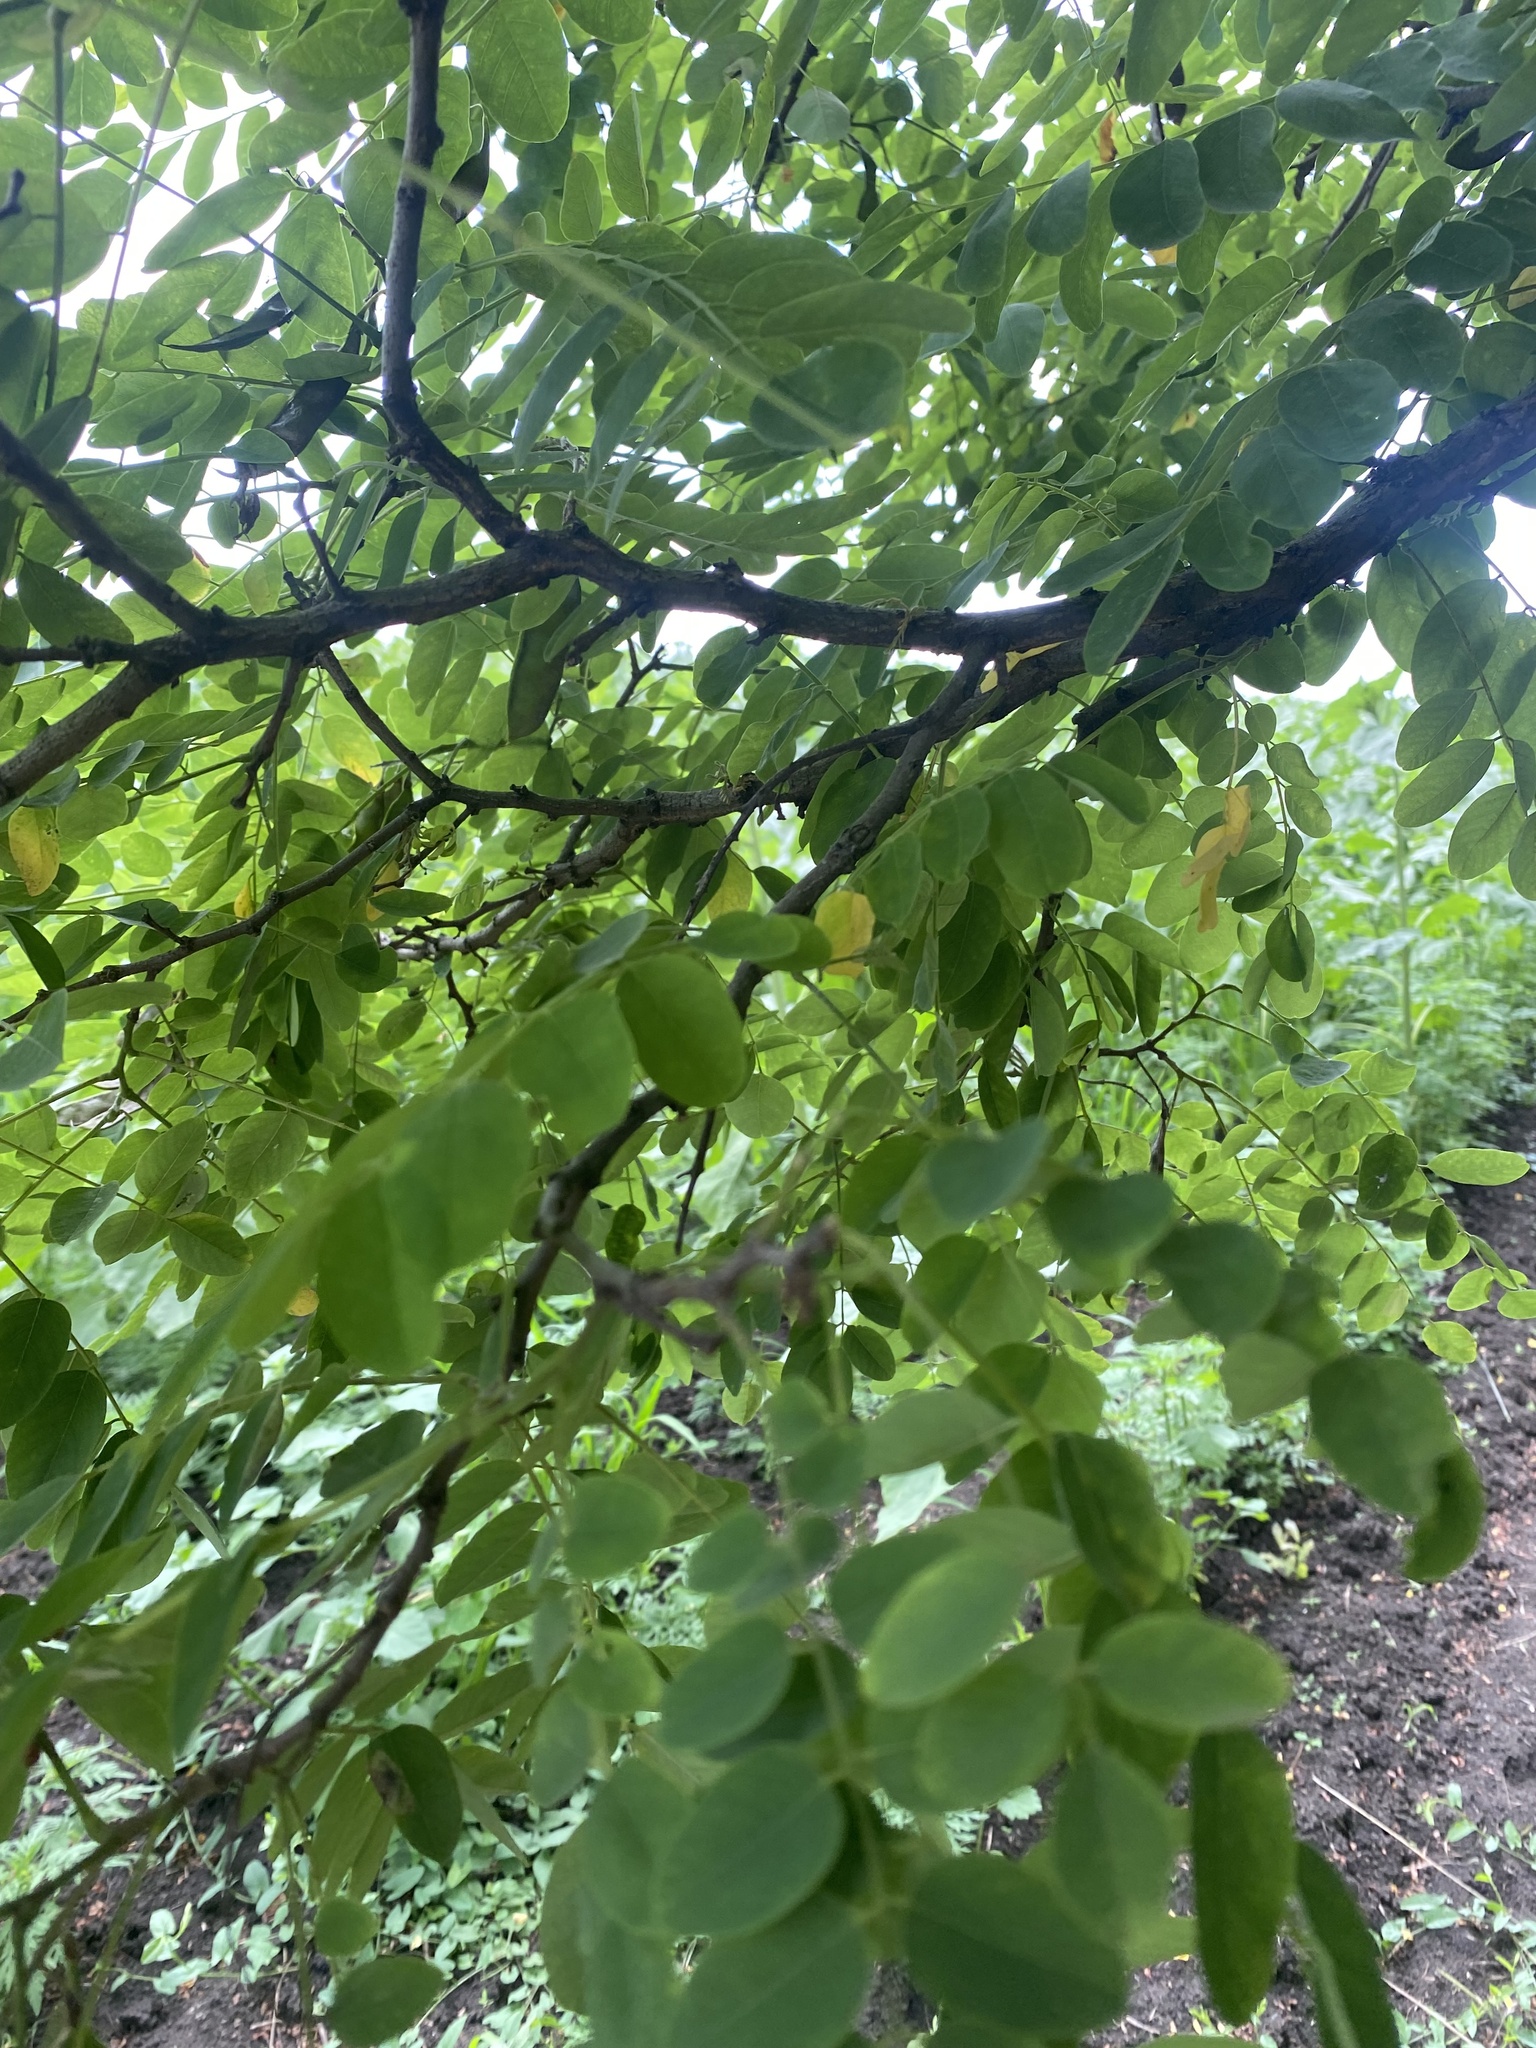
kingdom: Plantae
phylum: Tracheophyta
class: Magnoliopsida
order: Fabales
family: Fabaceae
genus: Robinia
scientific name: Robinia pseudoacacia
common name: Black locust
